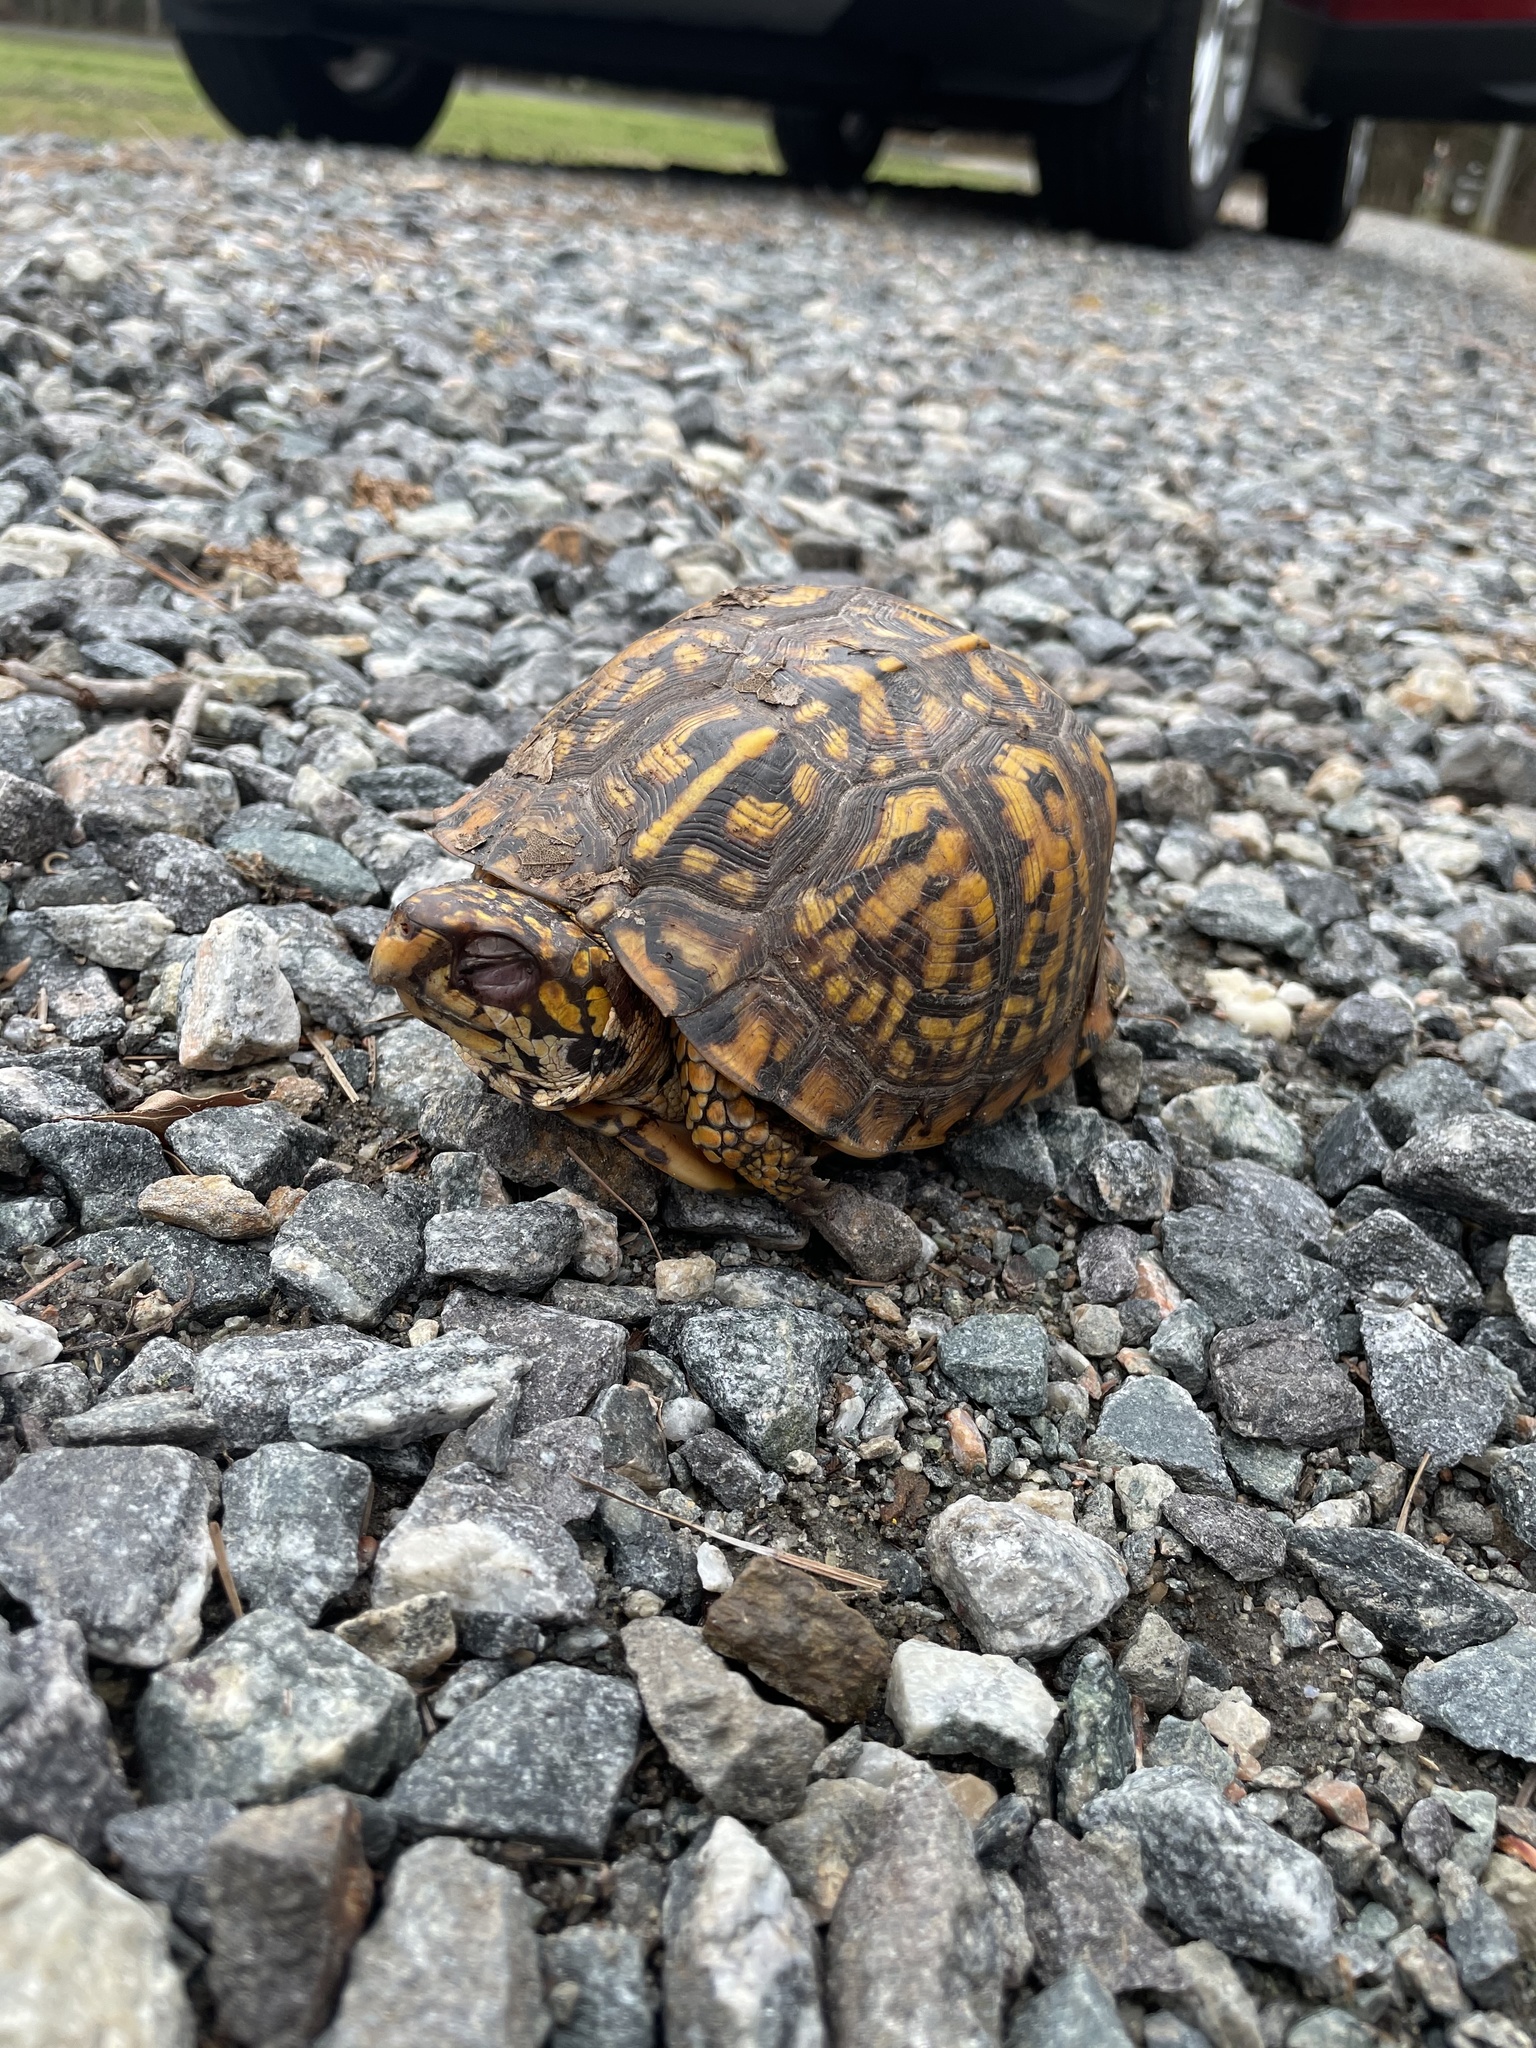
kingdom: Animalia
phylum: Chordata
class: Testudines
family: Emydidae
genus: Terrapene
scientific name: Terrapene carolina
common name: Common box turtle
